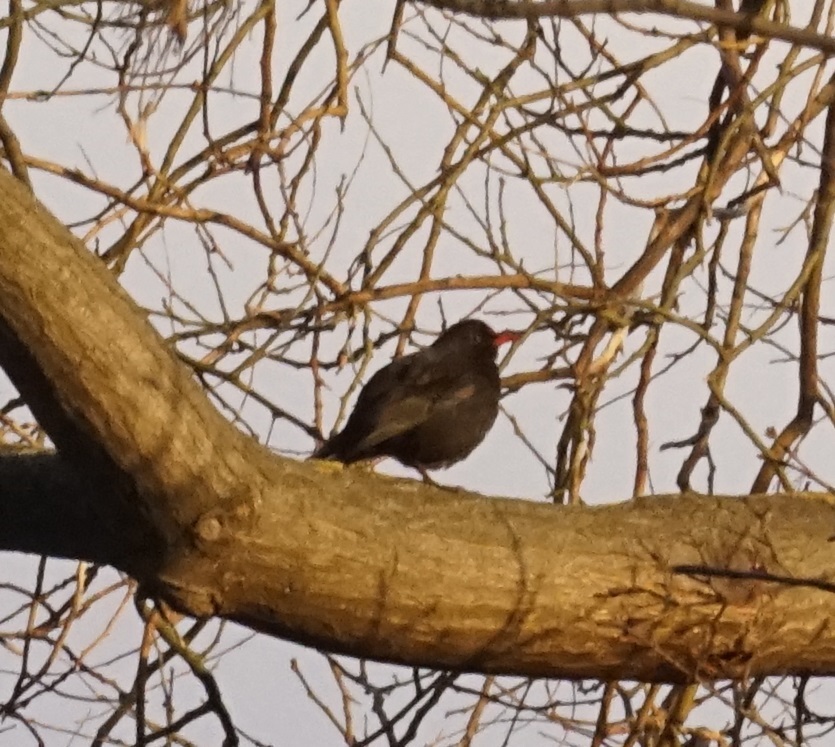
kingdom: Animalia
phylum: Chordata
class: Aves
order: Passeriformes
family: Turdidae
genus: Turdus
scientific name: Turdus merula
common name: Common blackbird
